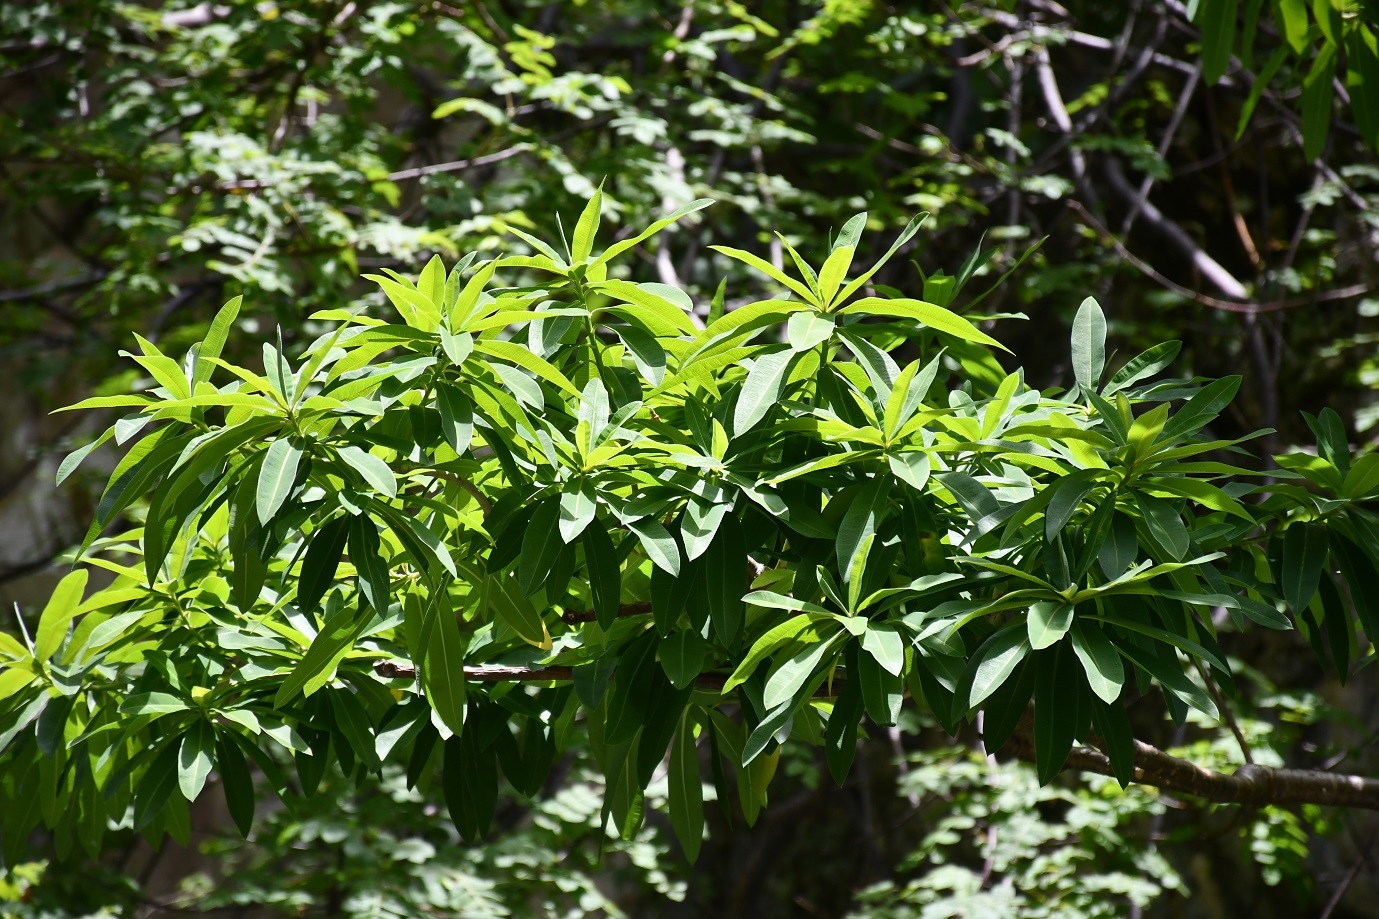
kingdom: Plantae
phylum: Tracheophyta
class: Magnoliopsida
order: Malpighiales
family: Euphorbiaceae
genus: Euphorbia
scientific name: Euphorbia lundelliana
